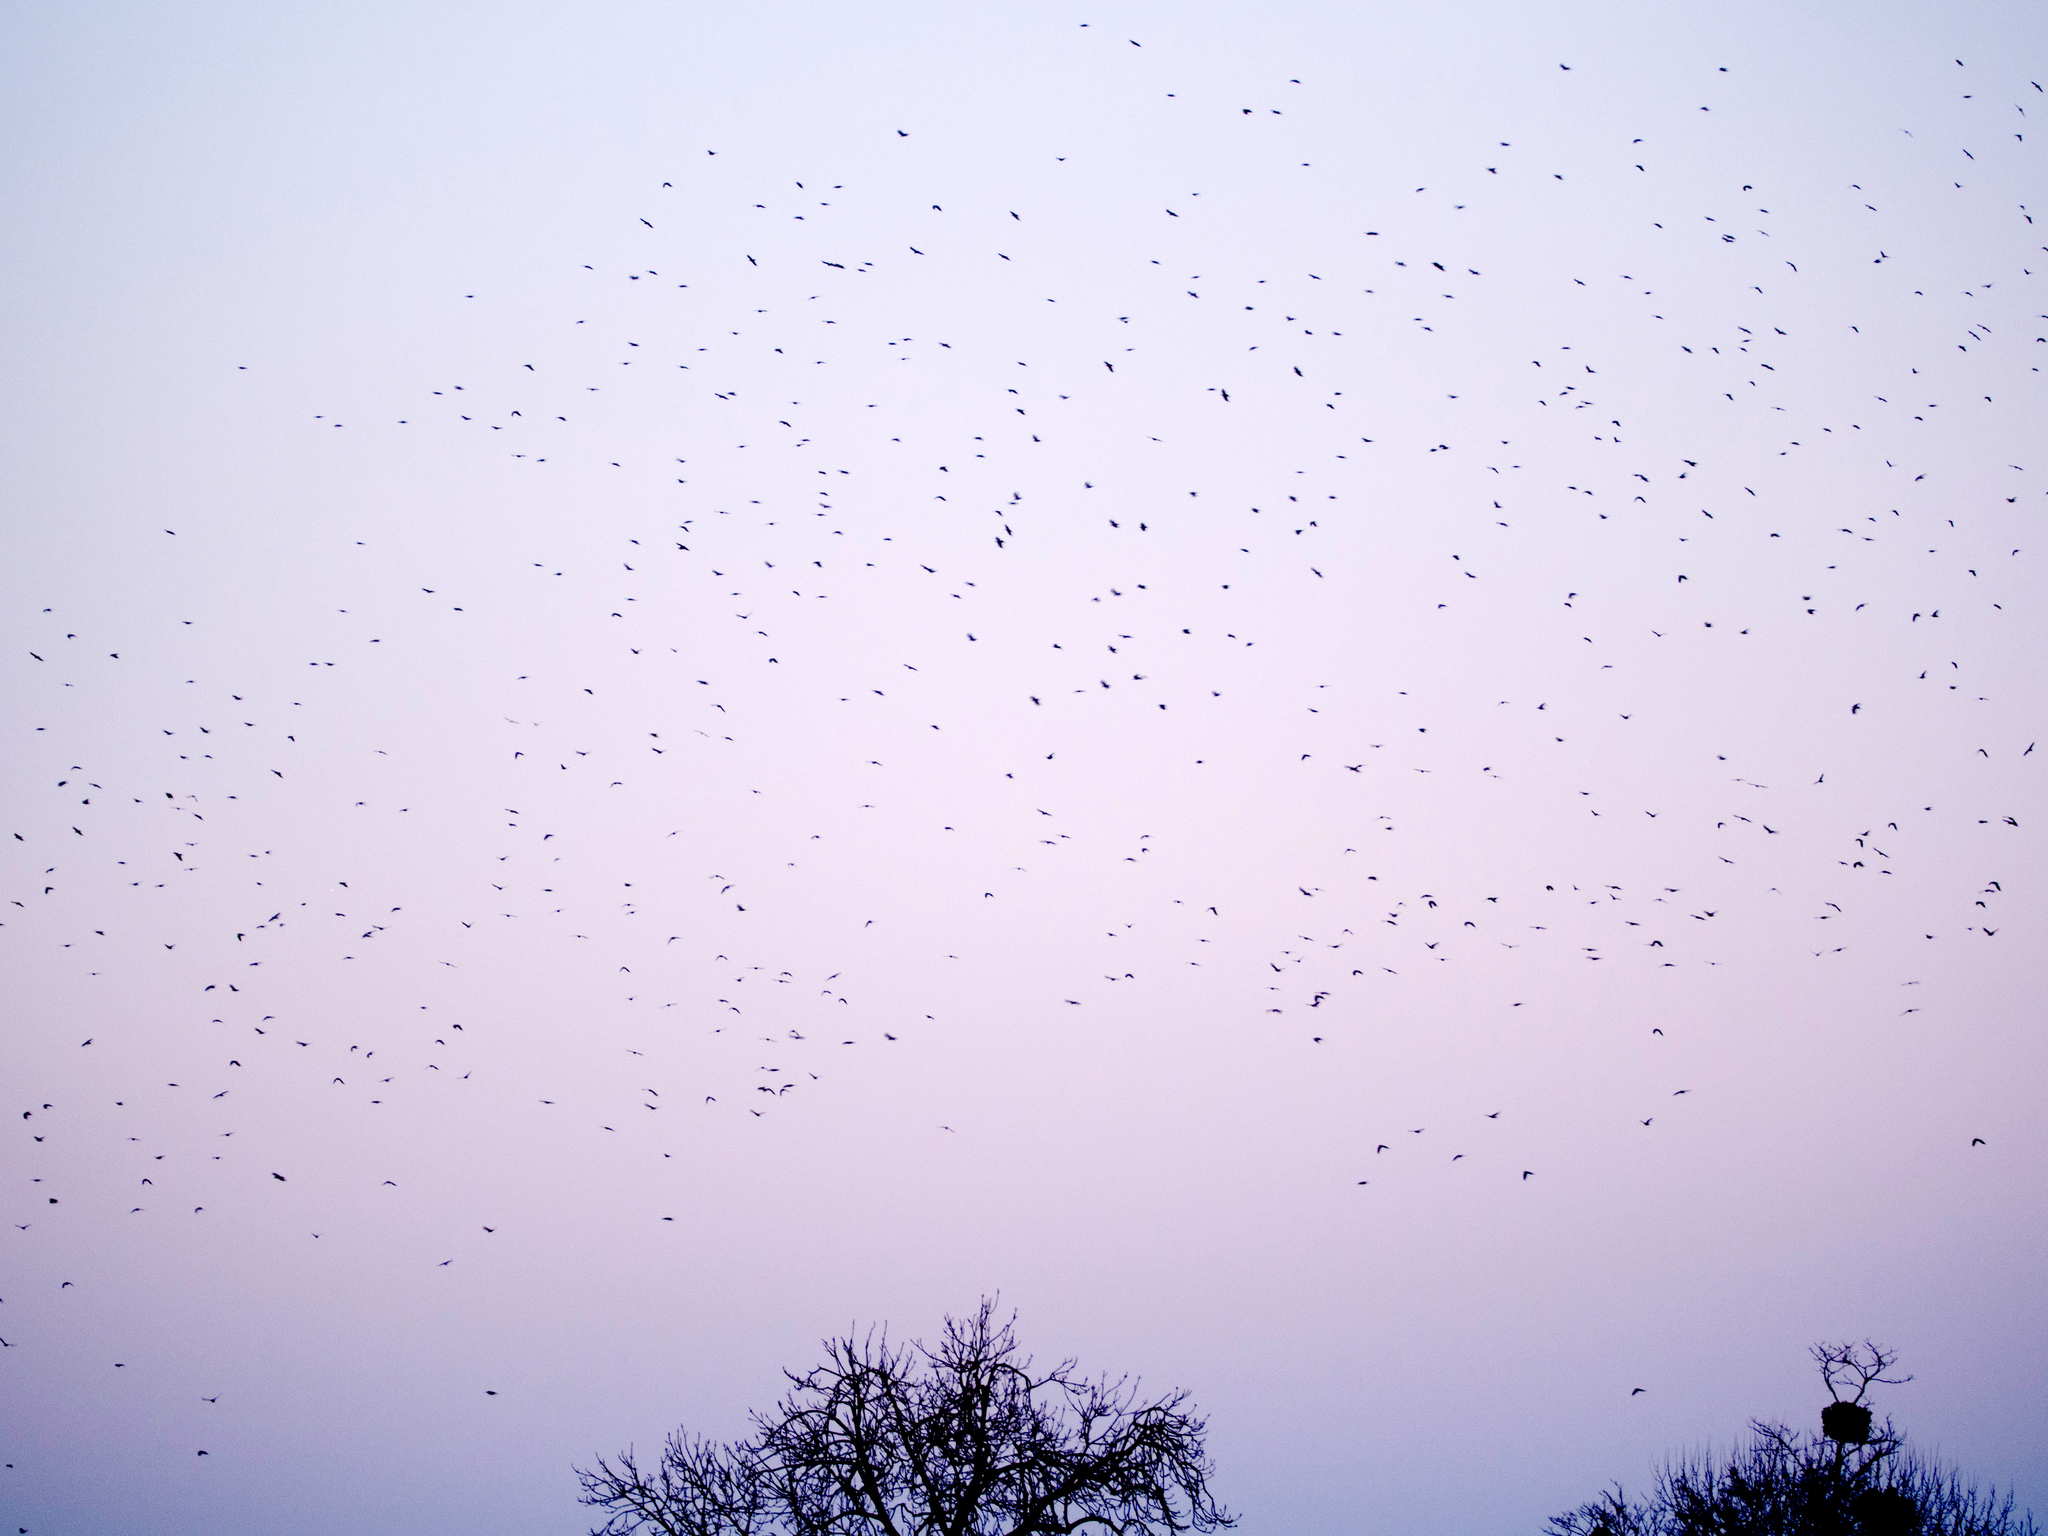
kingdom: Animalia
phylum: Chordata
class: Aves
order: Passeriformes
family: Corvidae
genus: Corvus
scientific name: Corvus frugilegus
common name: Rook
